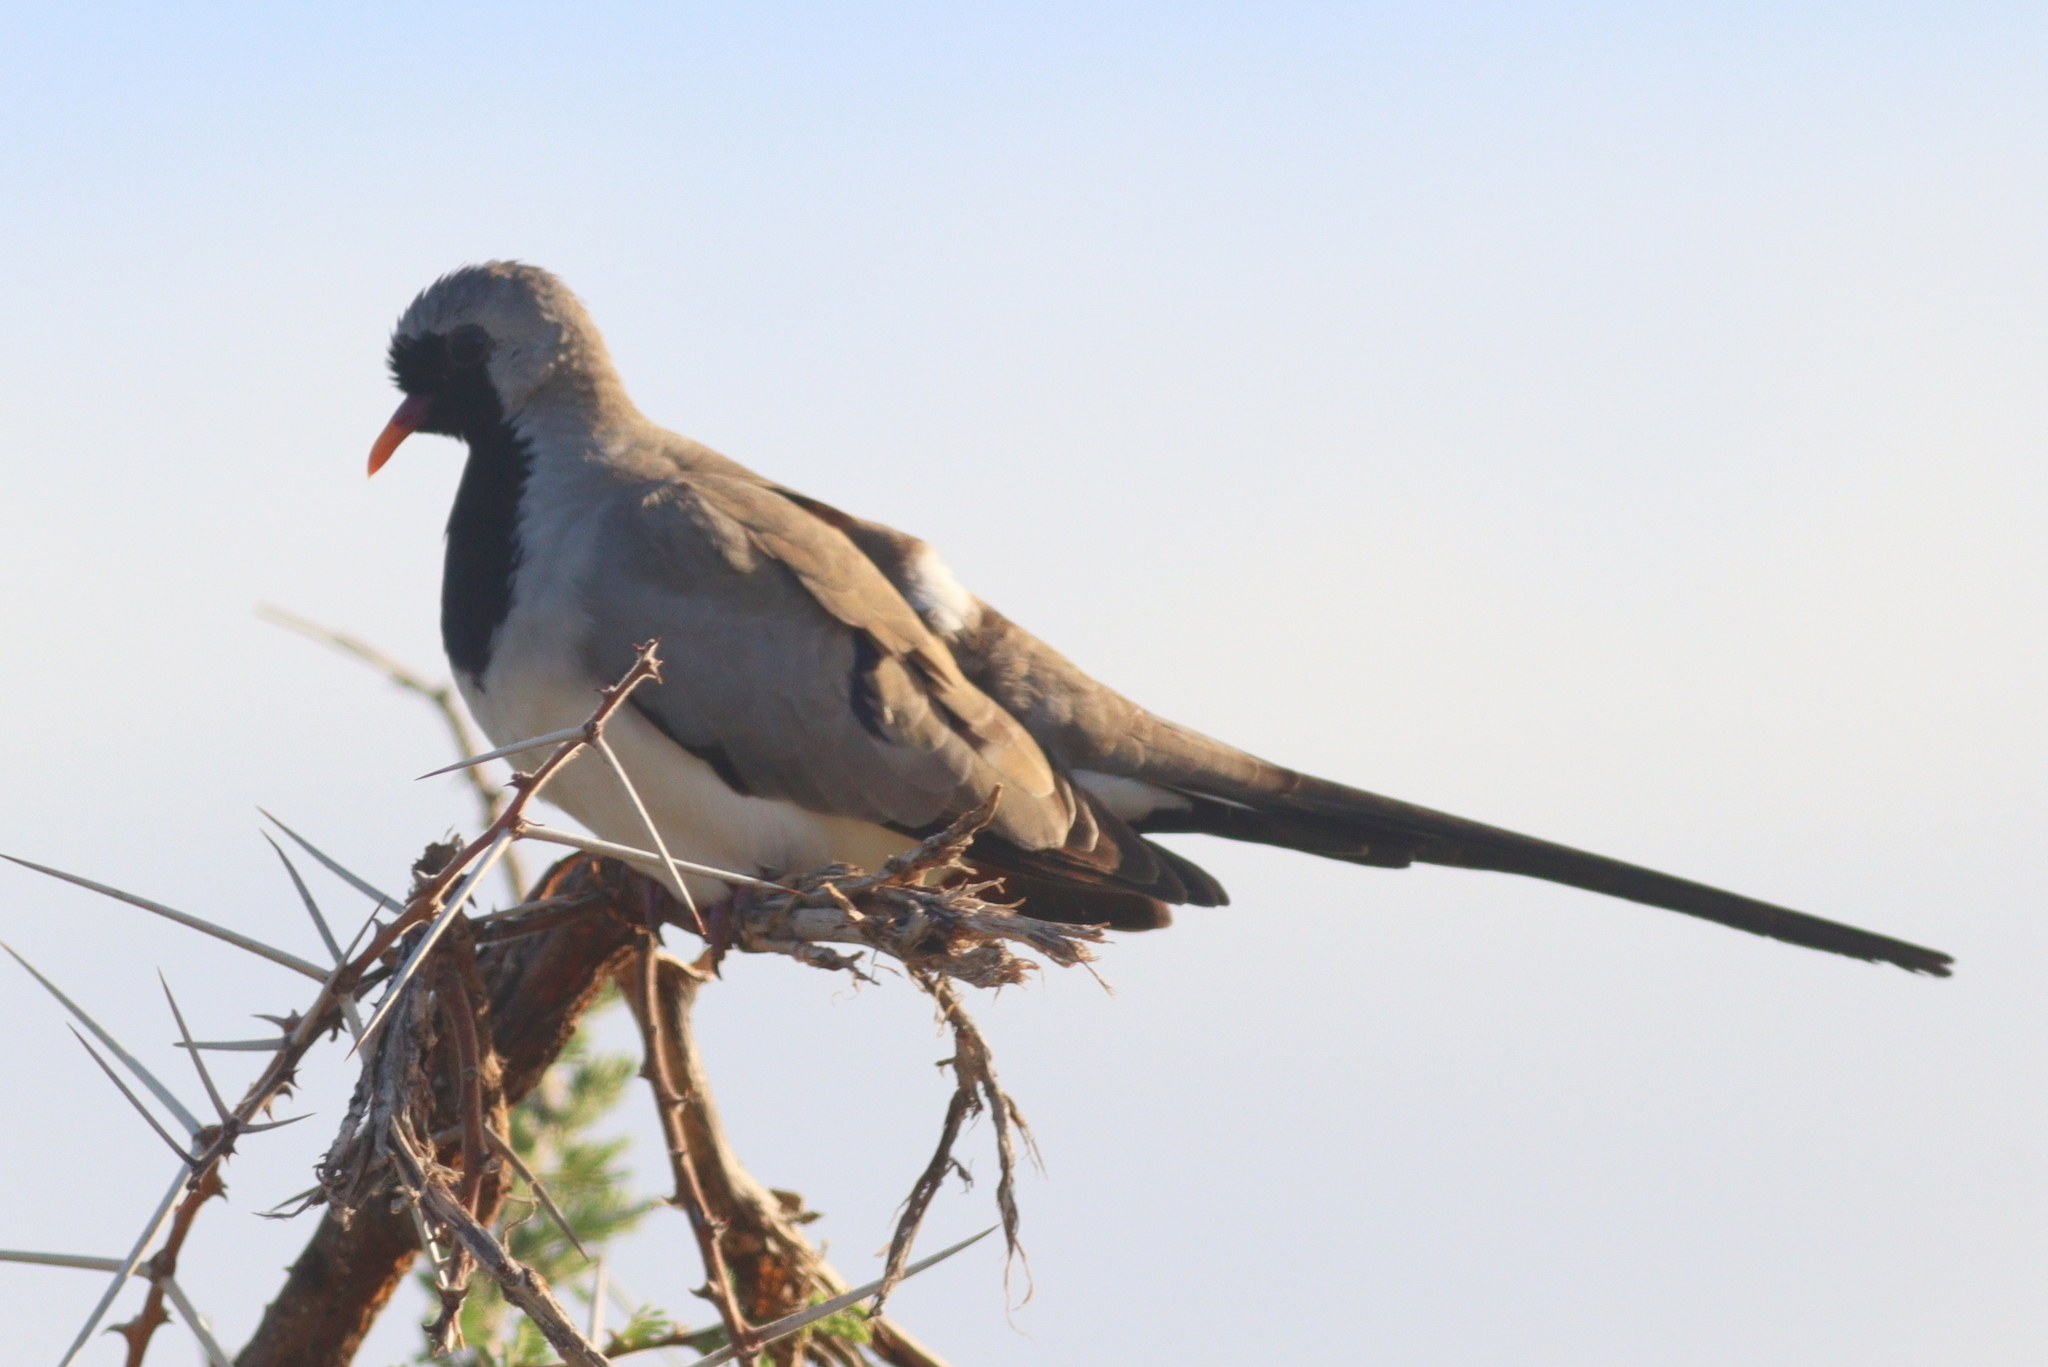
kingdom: Animalia
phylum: Chordata
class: Aves
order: Columbiformes
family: Columbidae
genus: Oena
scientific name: Oena capensis
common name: Namaqua dove
